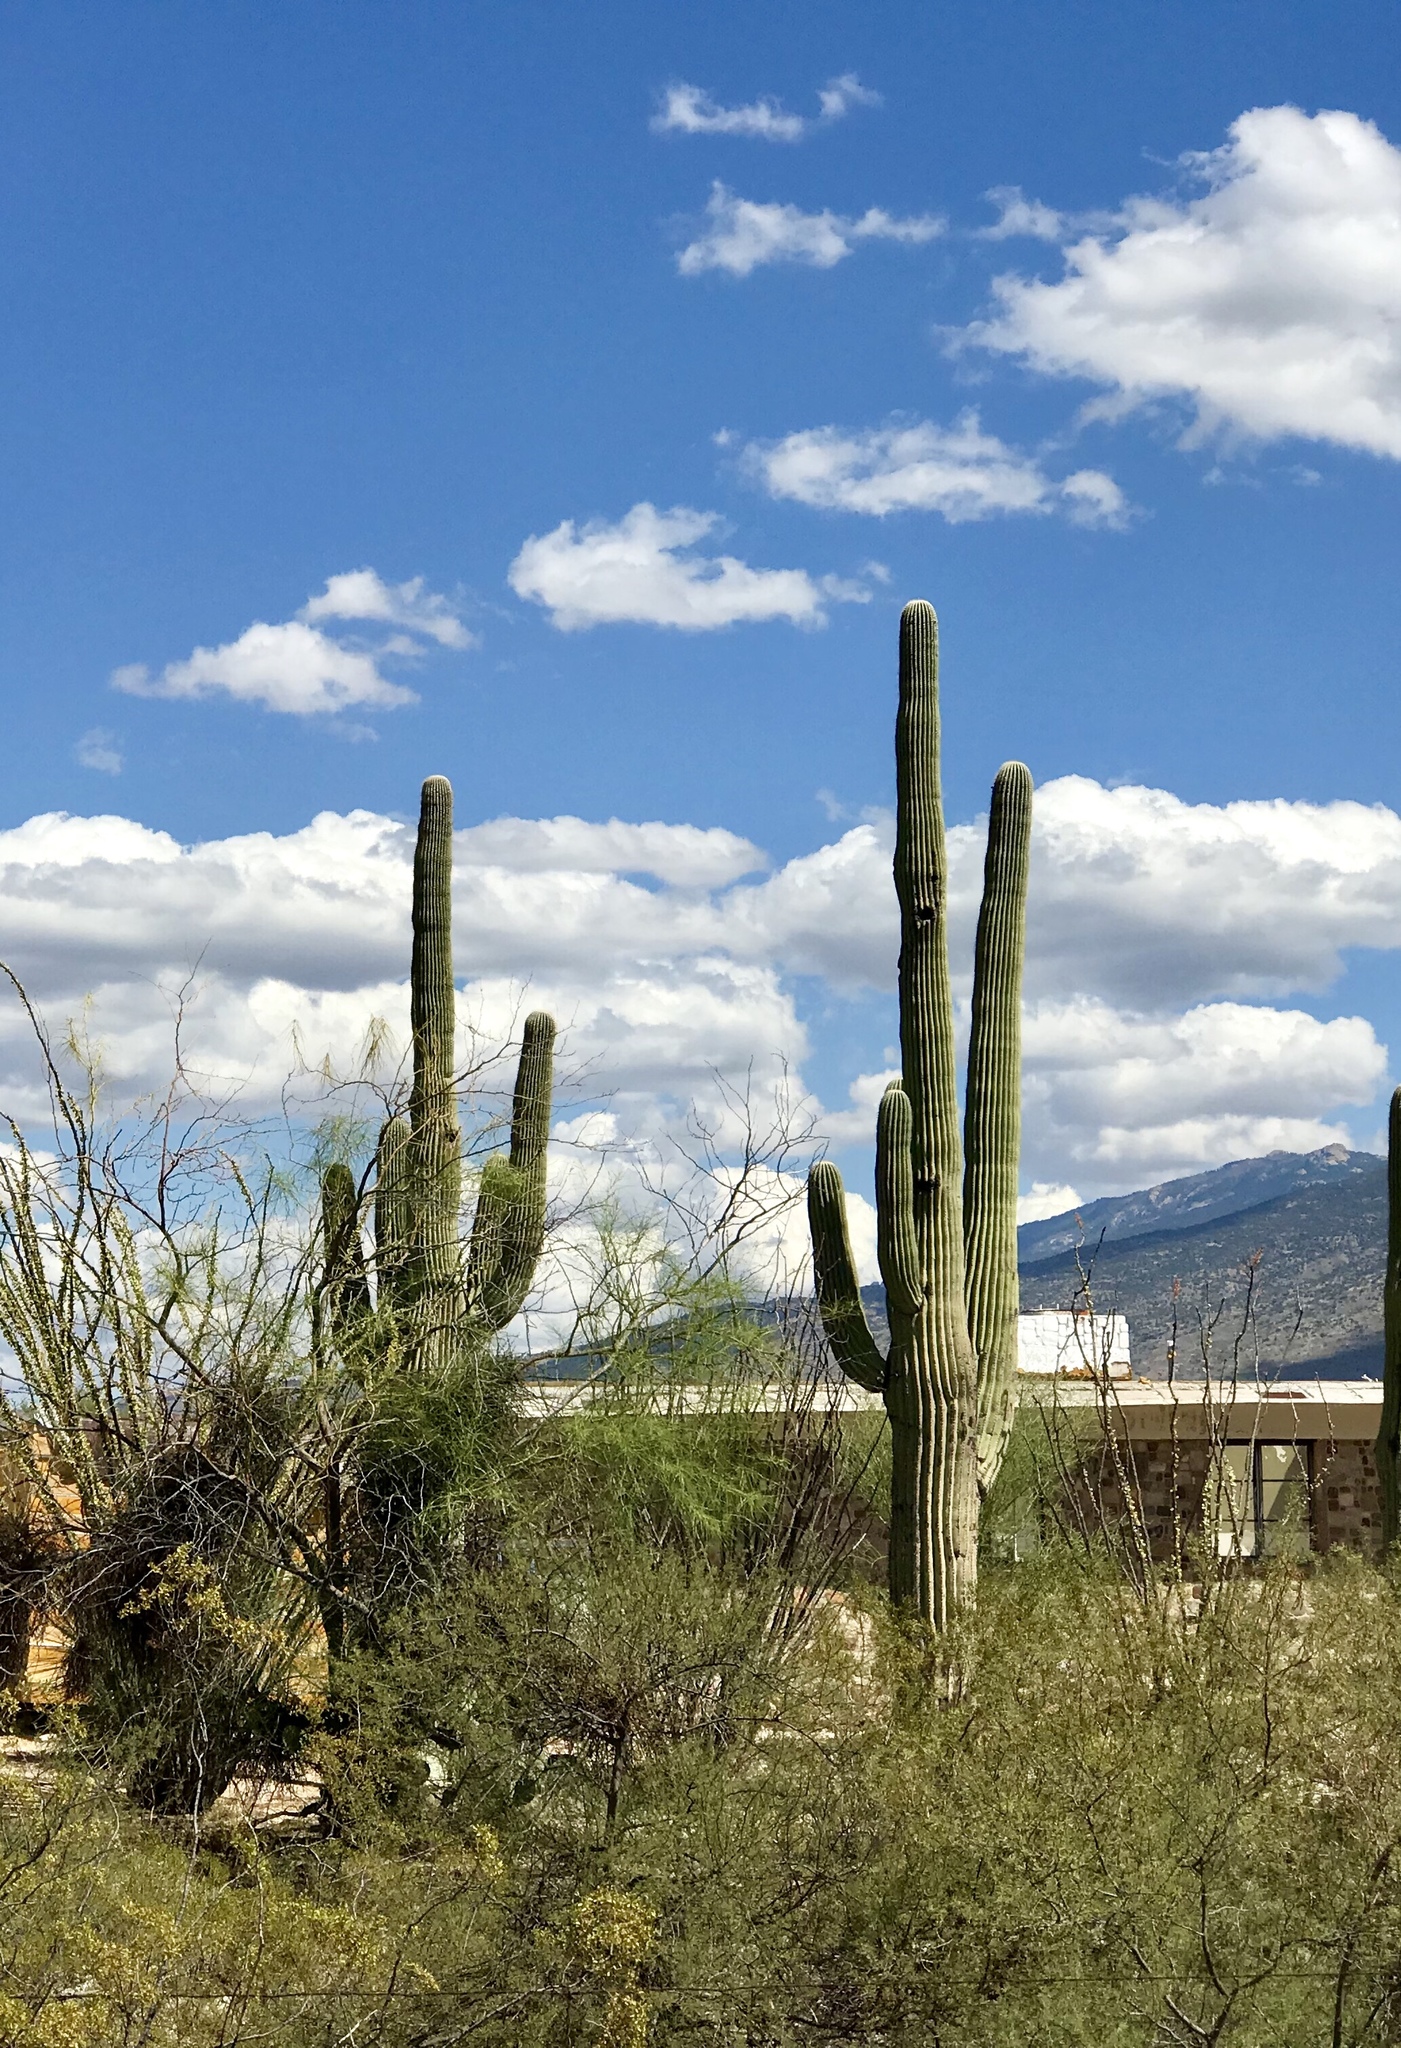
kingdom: Plantae
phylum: Tracheophyta
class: Magnoliopsida
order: Caryophyllales
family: Cactaceae
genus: Carnegiea
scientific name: Carnegiea gigantea
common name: Saguaro
